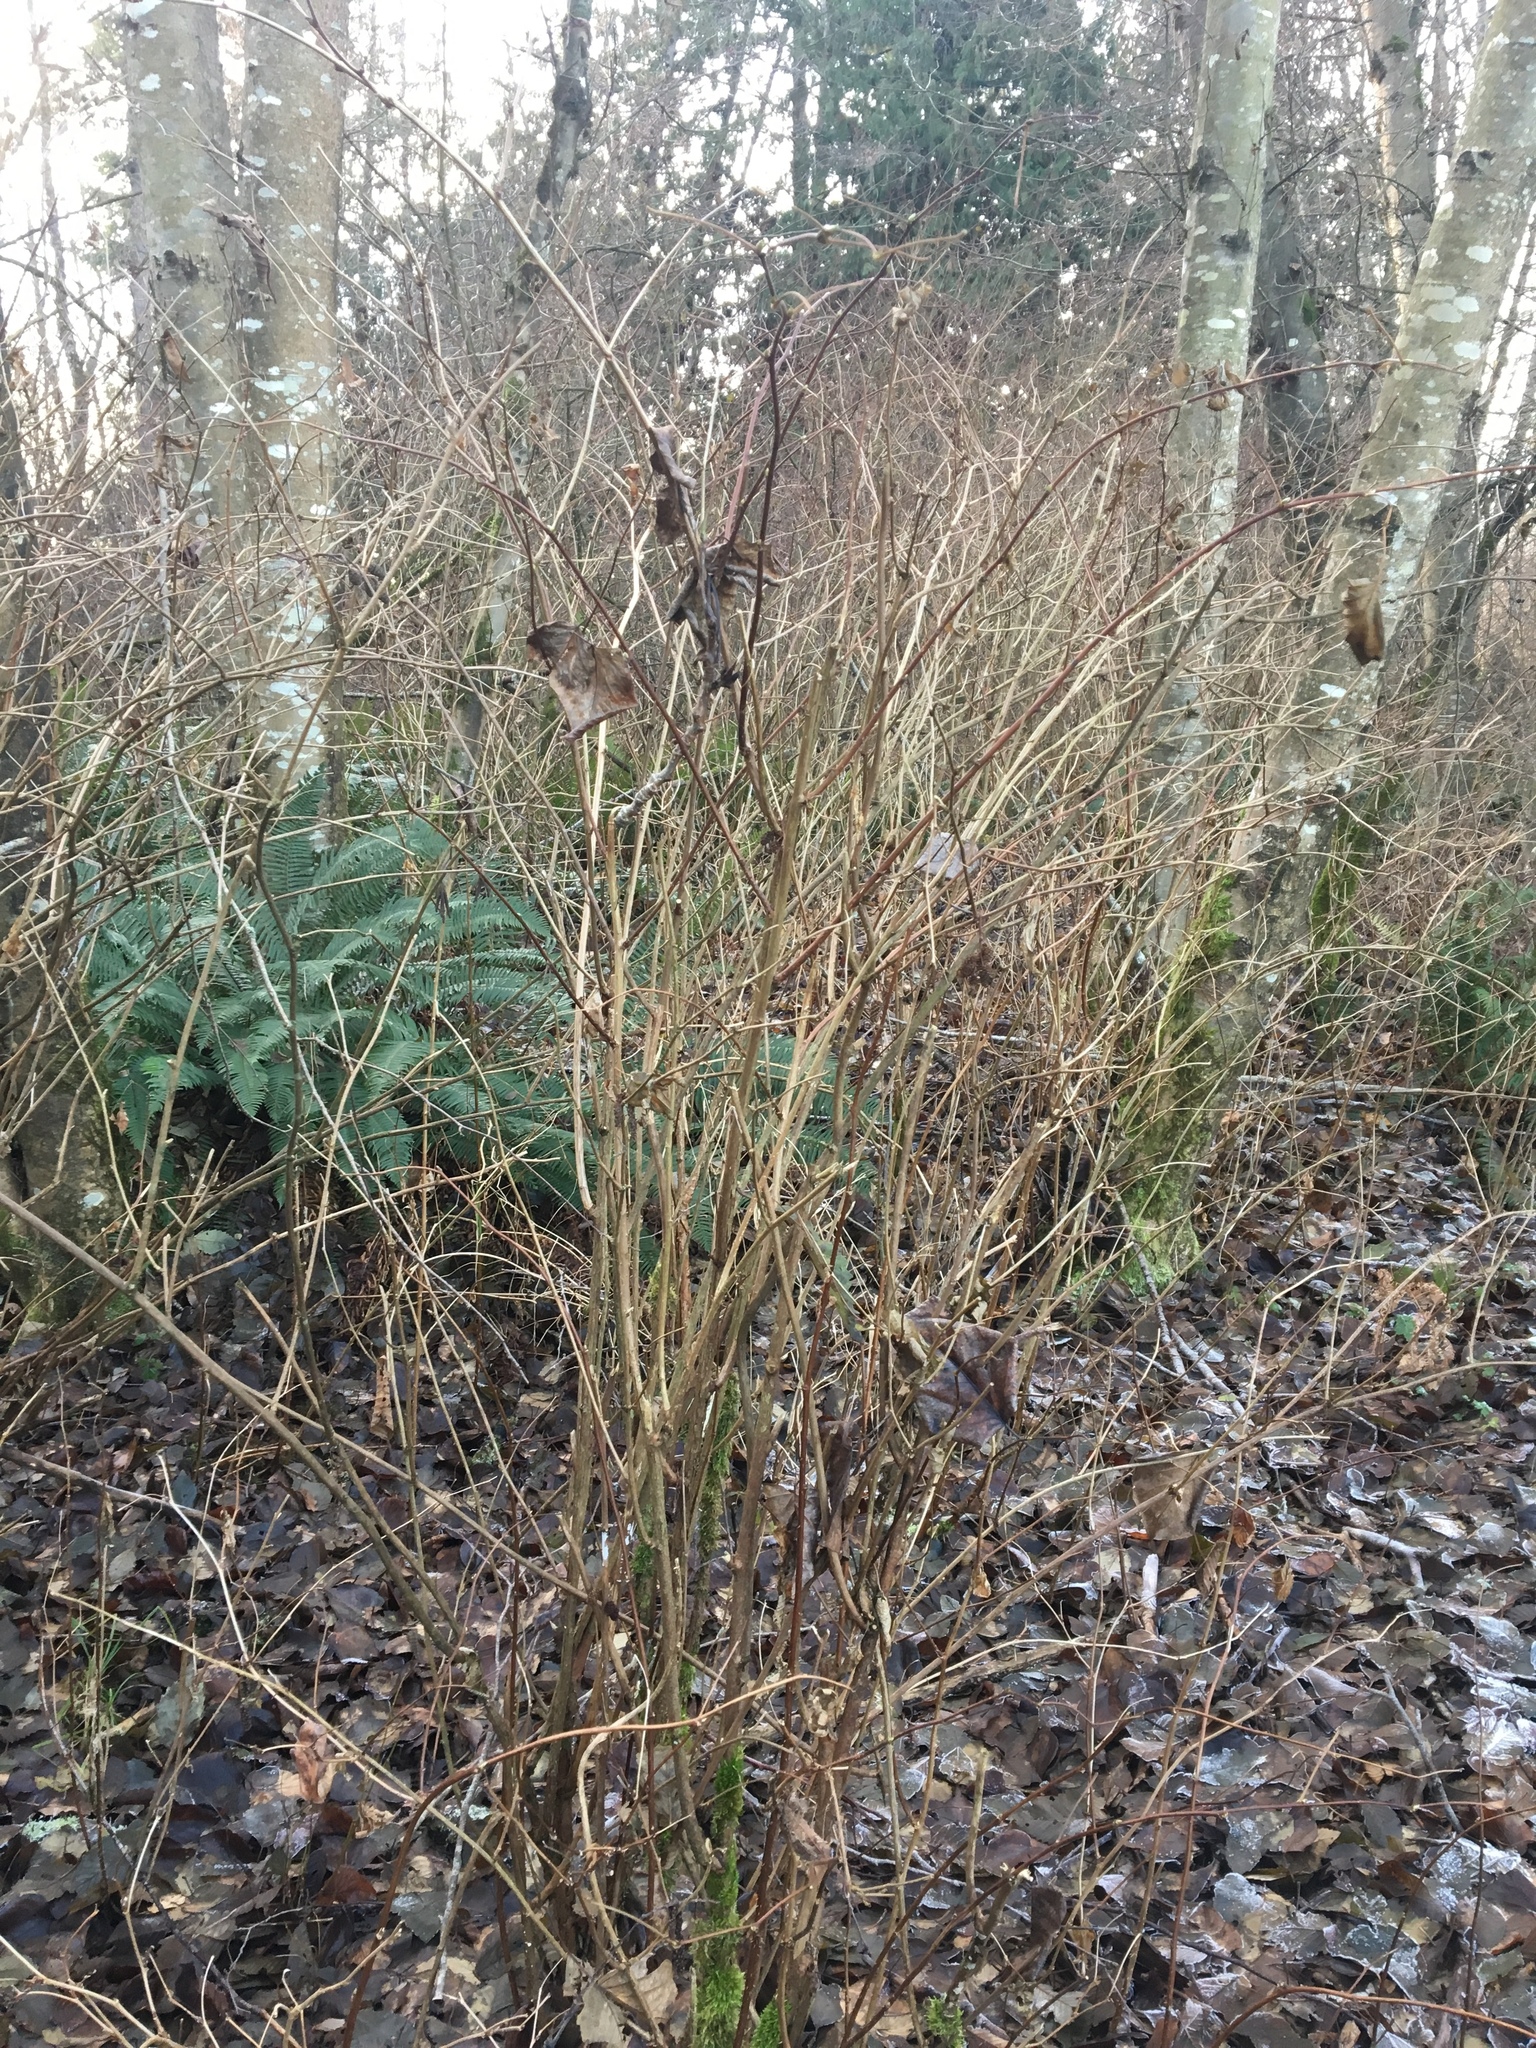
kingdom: Plantae
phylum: Tracheophyta
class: Magnoliopsida
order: Rosales
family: Rosaceae
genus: Rubus
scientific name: Rubus spectabilis
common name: Salmonberry
